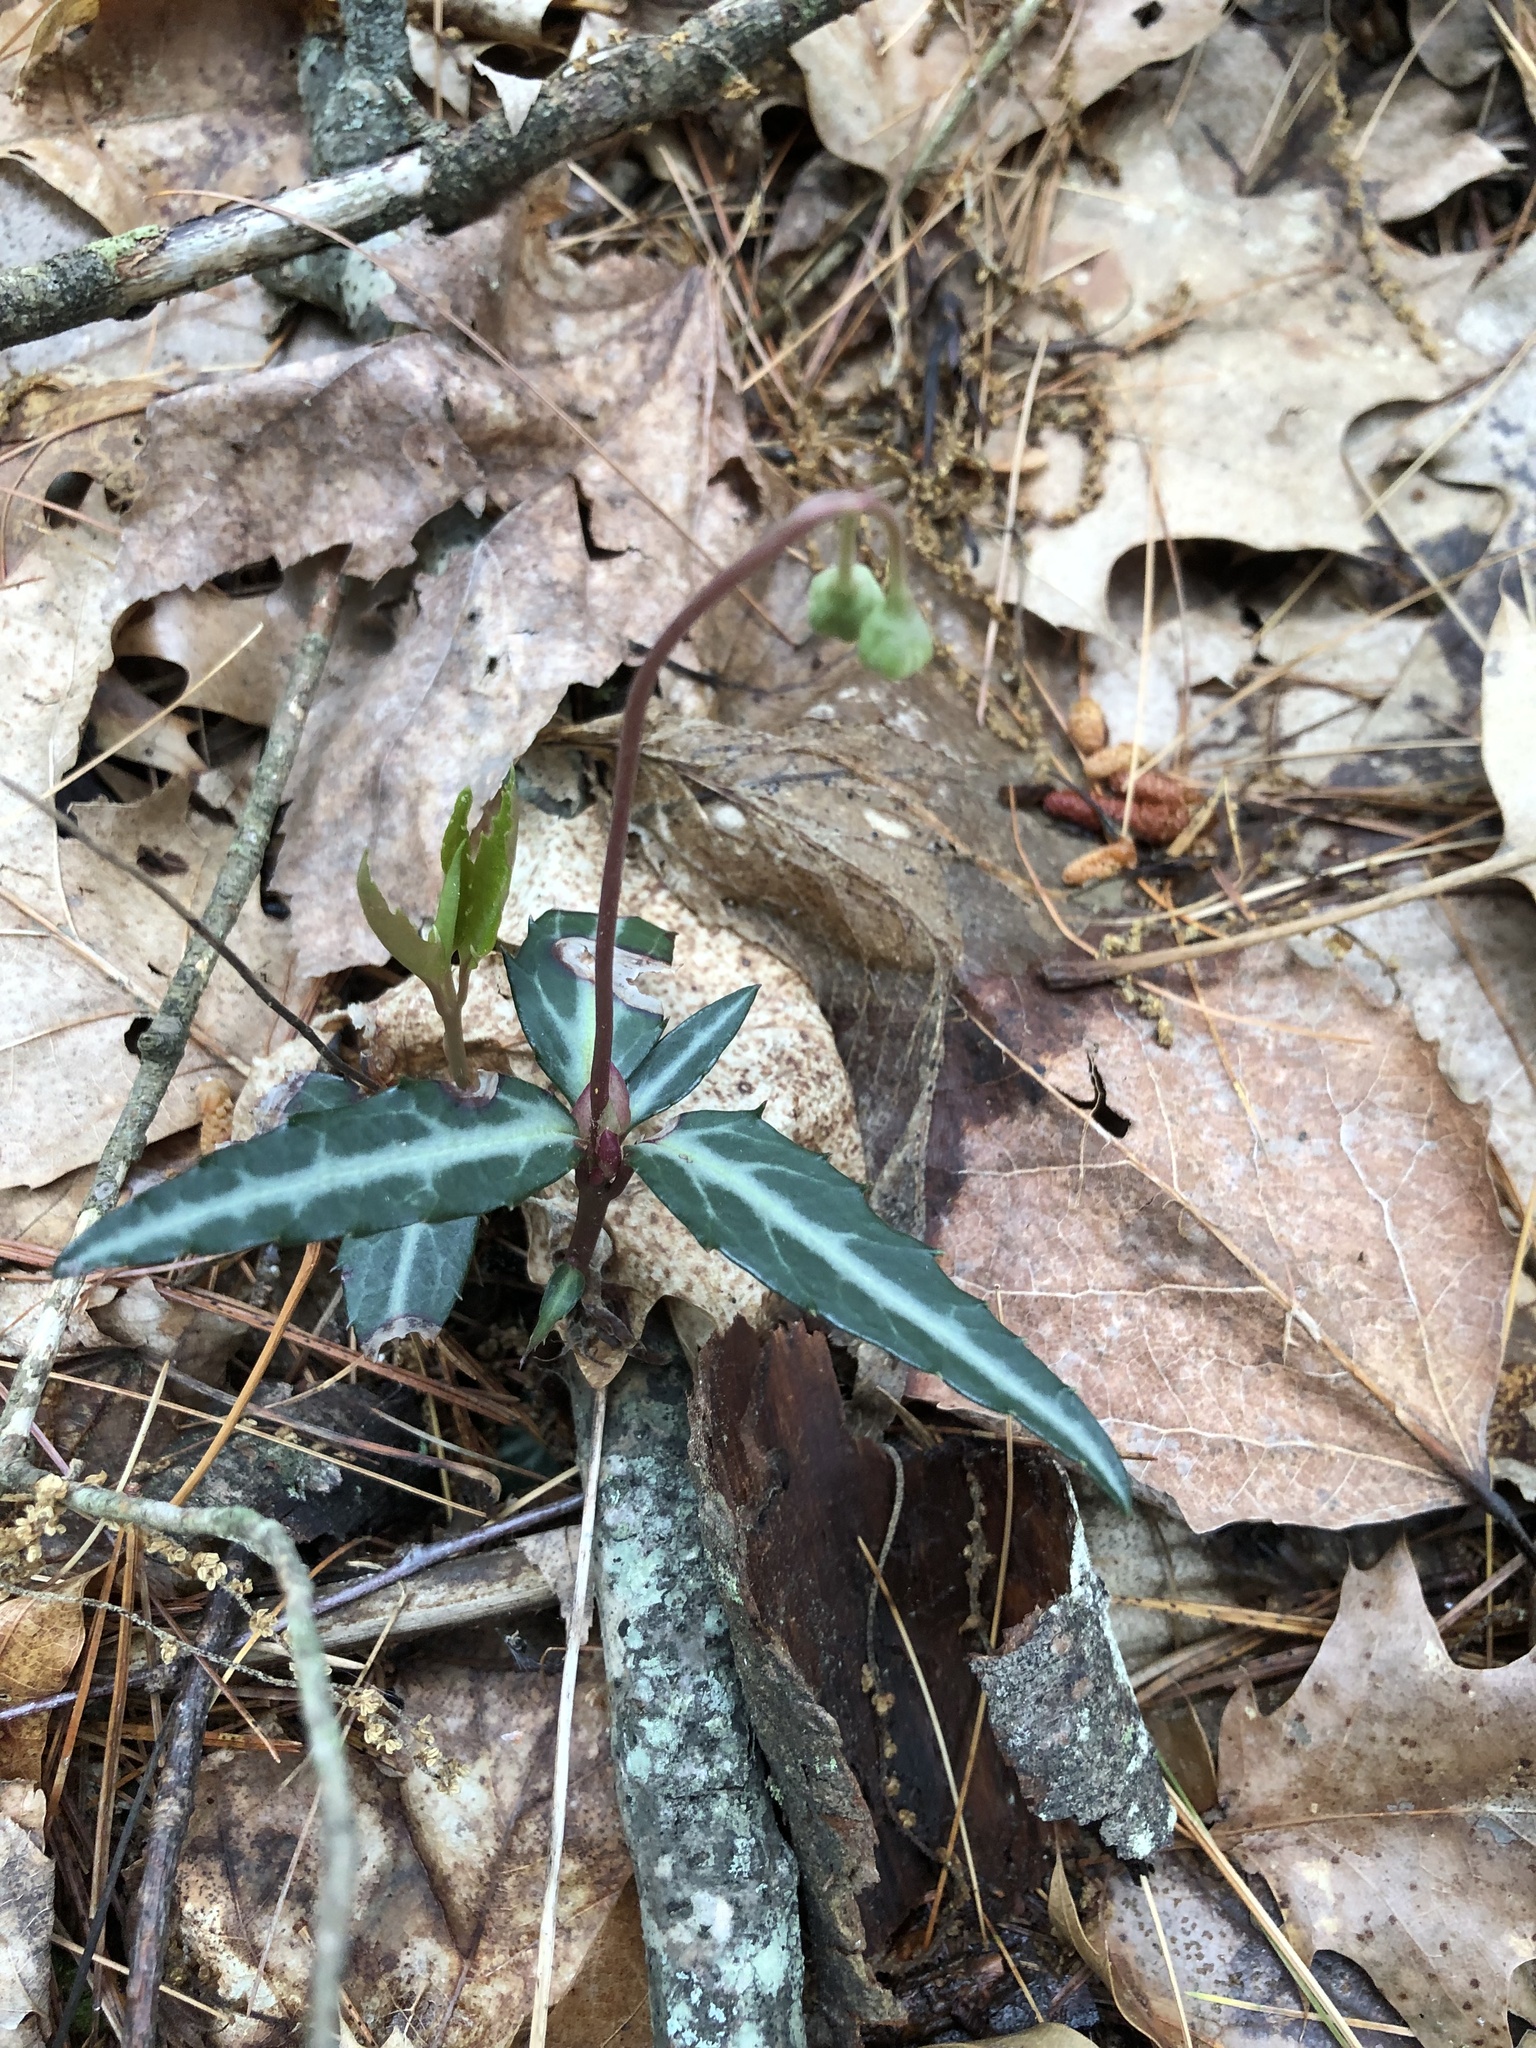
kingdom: Plantae
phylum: Tracheophyta
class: Magnoliopsida
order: Ericales
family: Ericaceae
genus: Chimaphila
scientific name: Chimaphila maculata
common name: Spotted pipsissewa
